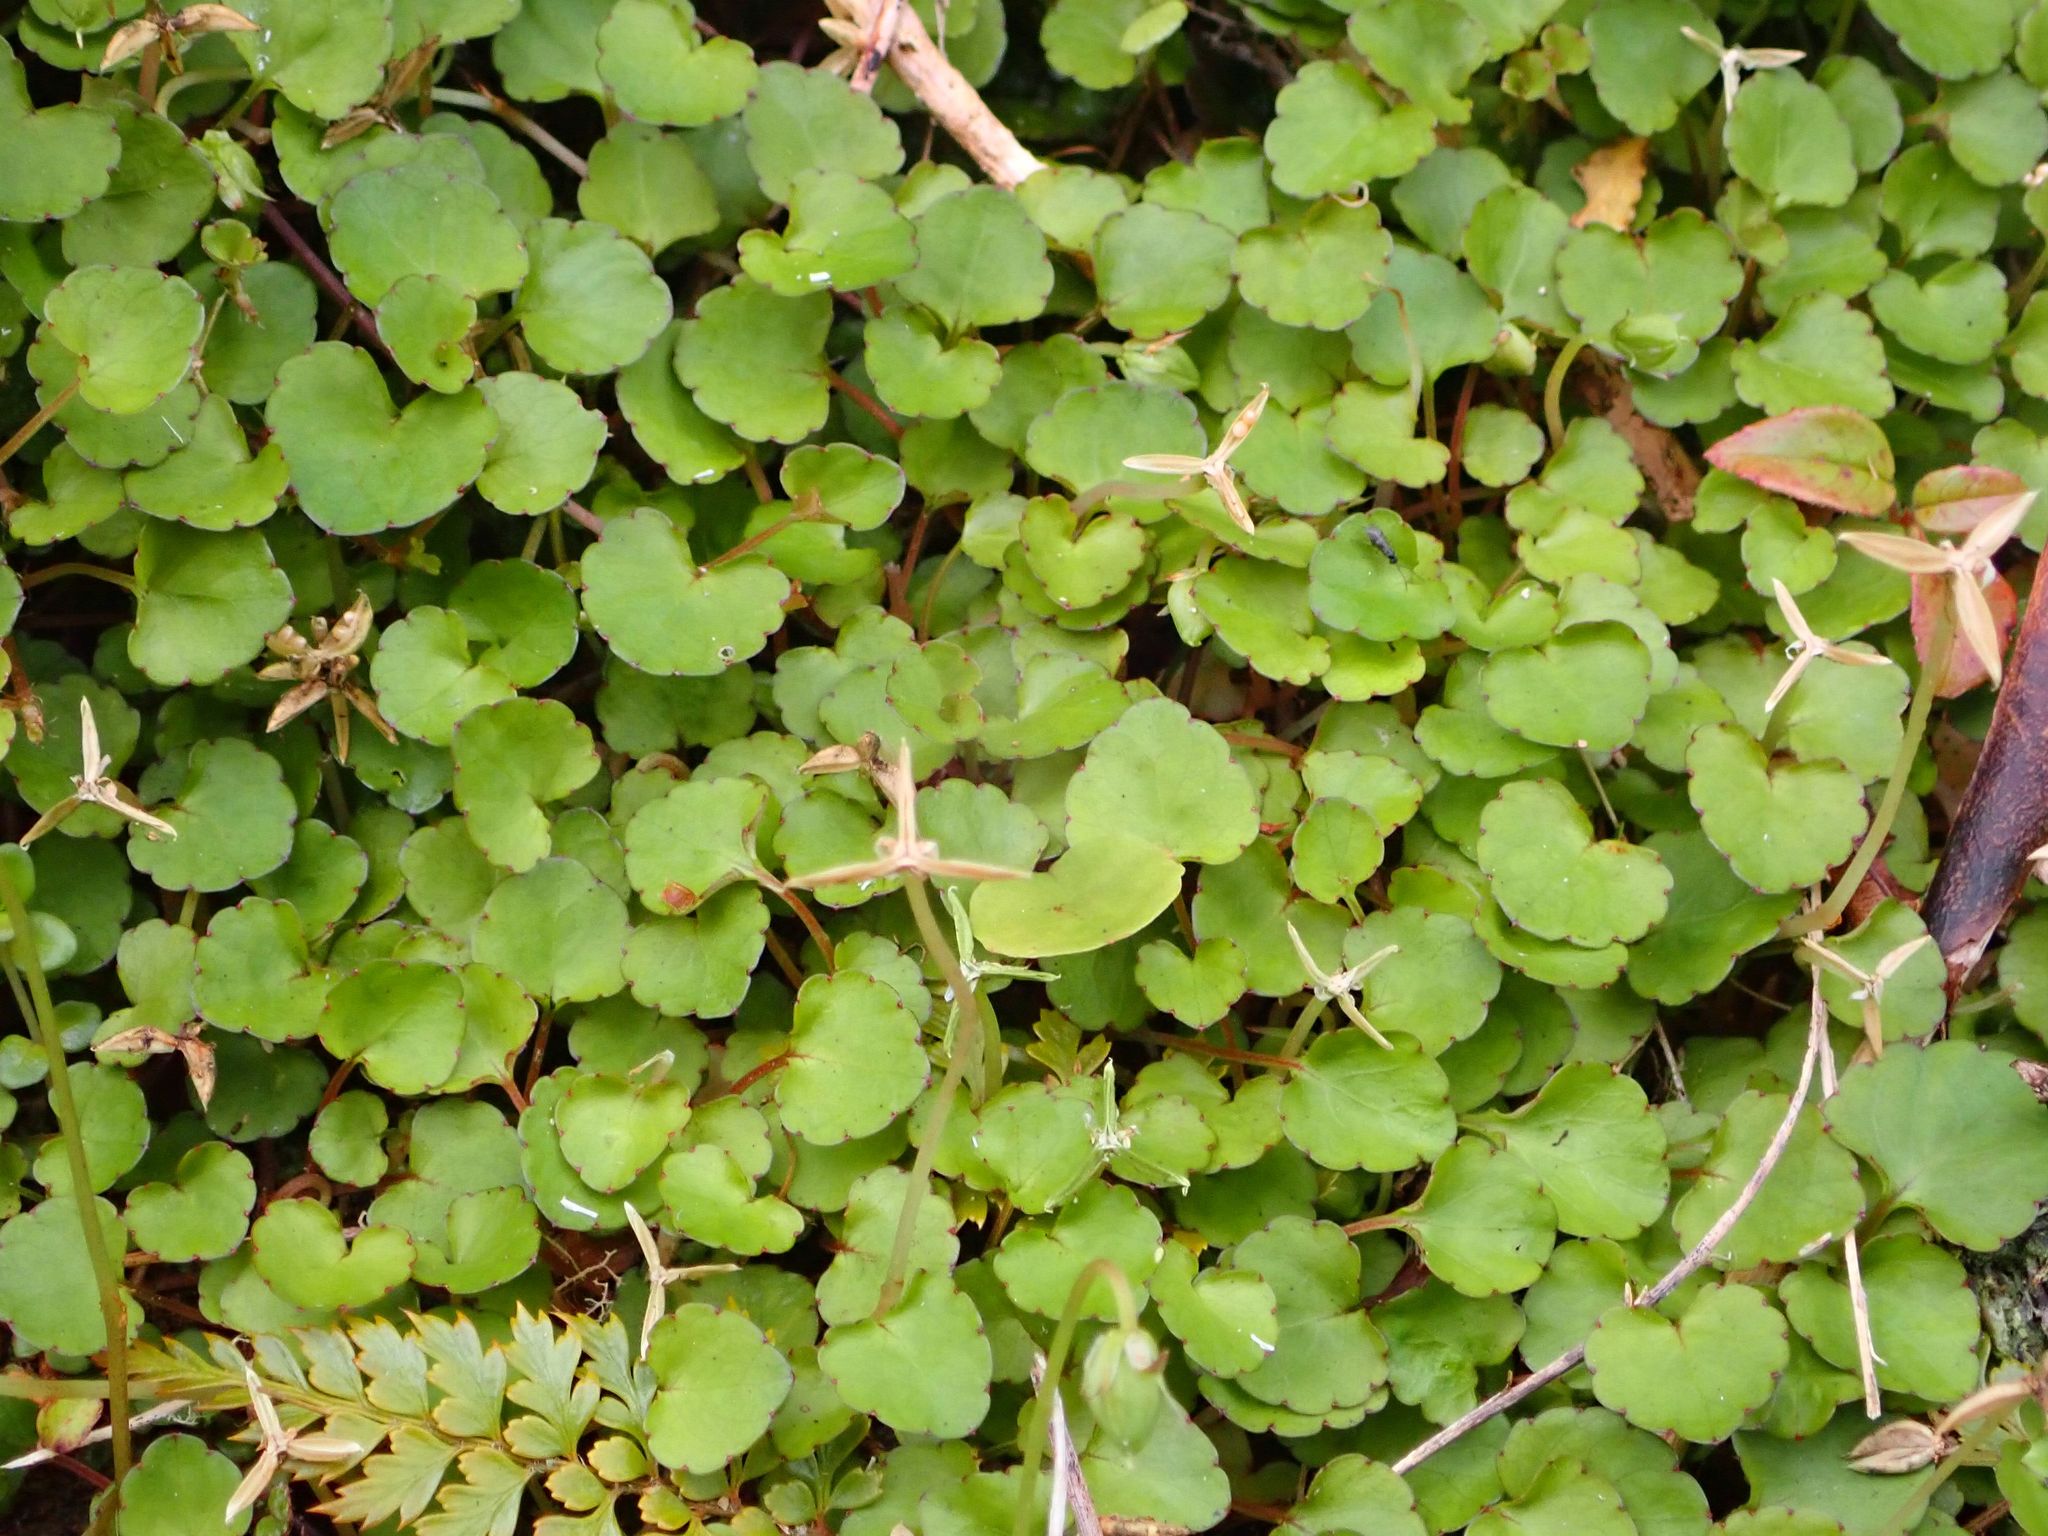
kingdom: Plantae
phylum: Tracheophyta
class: Magnoliopsida
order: Malpighiales
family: Violaceae
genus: Viola
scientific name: Viola filicaulis
